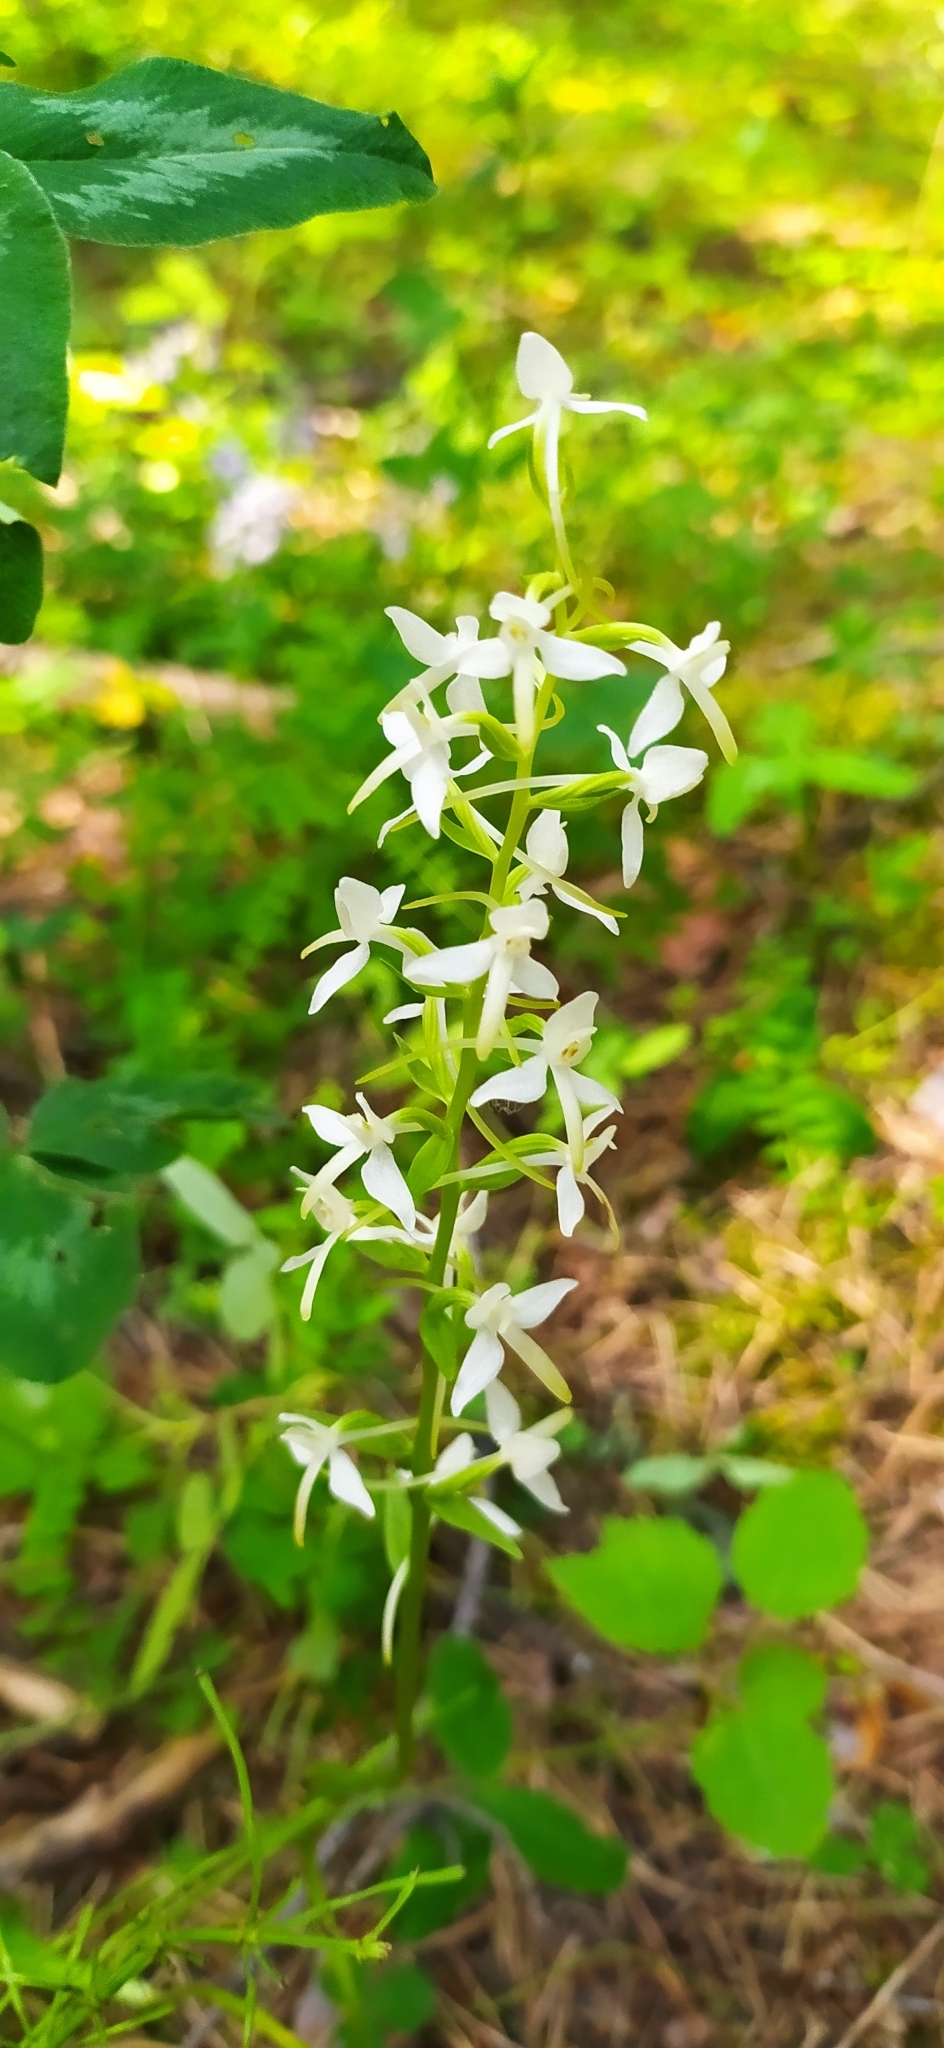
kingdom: Plantae
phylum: Tracheophyta
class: Liliopsida
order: Asparagales
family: Orchidaceae
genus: Platanthera
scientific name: Platanthera bifolia
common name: Lesser butterfly-orchid
